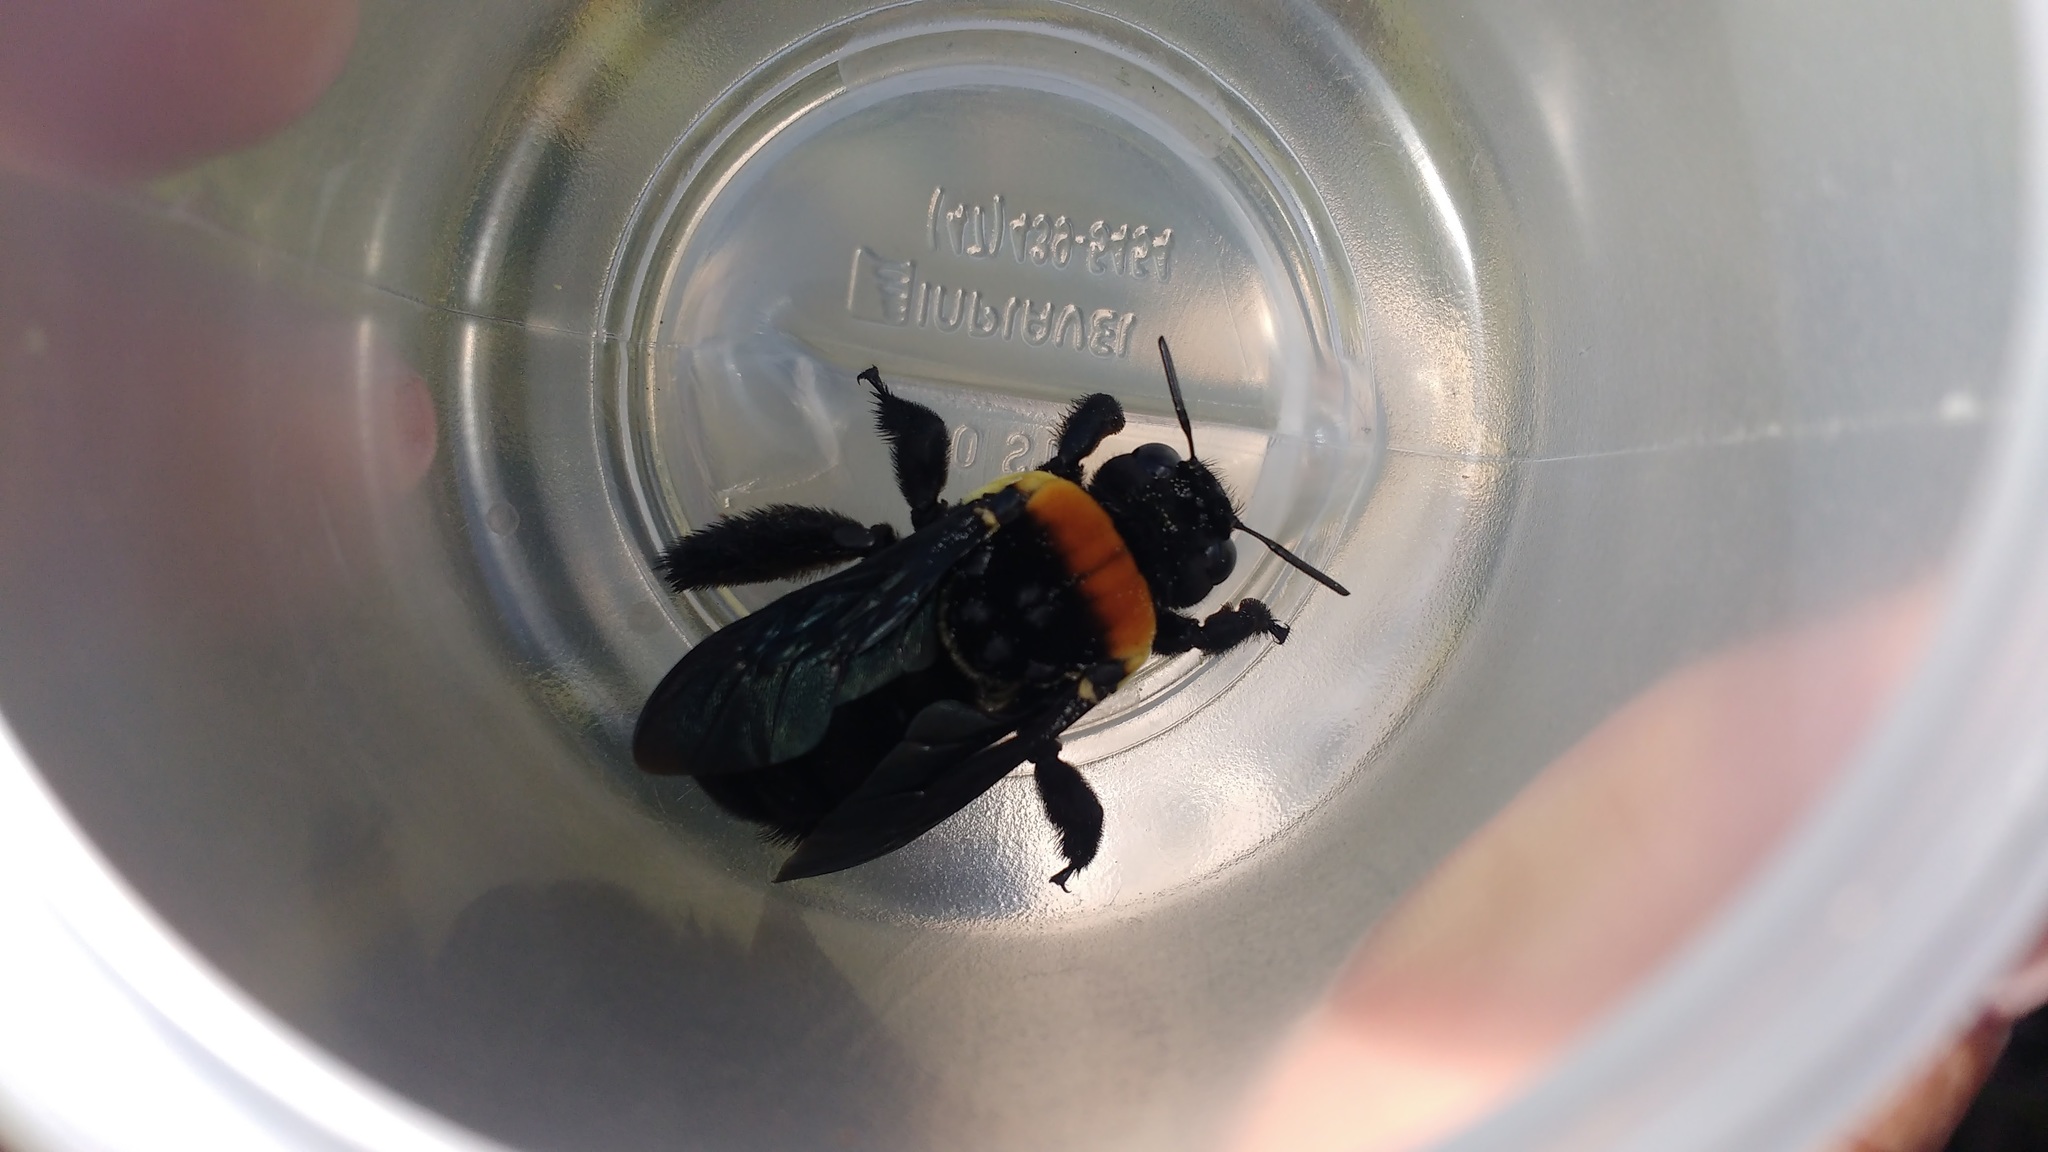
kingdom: Animalia
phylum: Arthropoda
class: Insecta
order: Hymenoptera
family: Apidae
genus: Centris
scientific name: Centris scopipes
